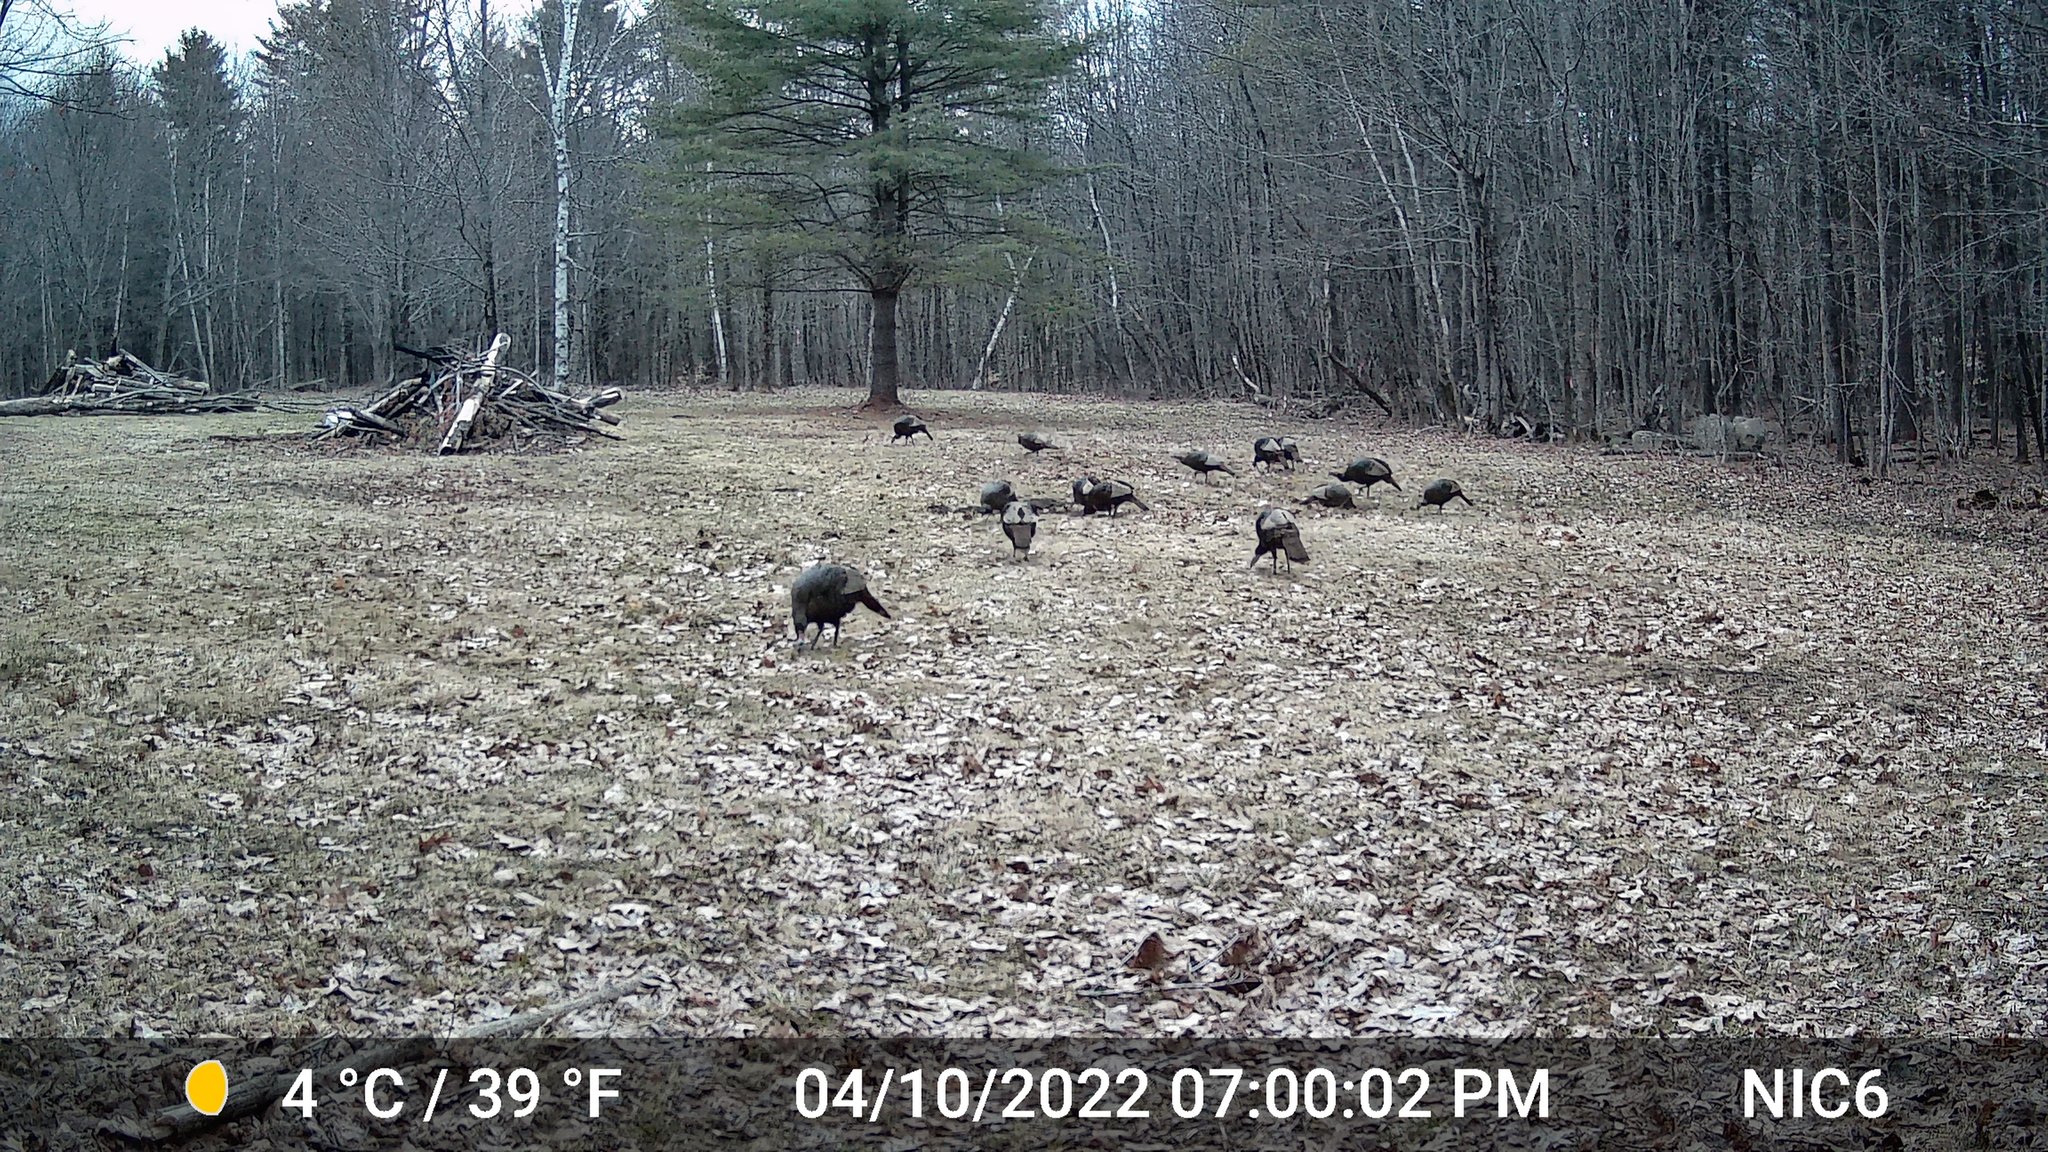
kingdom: Animalia
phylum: Chordata
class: Aves
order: Galliformes
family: Phasianidae
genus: Meleagris
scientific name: Meleagris gallopavo
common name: Wild turkey
